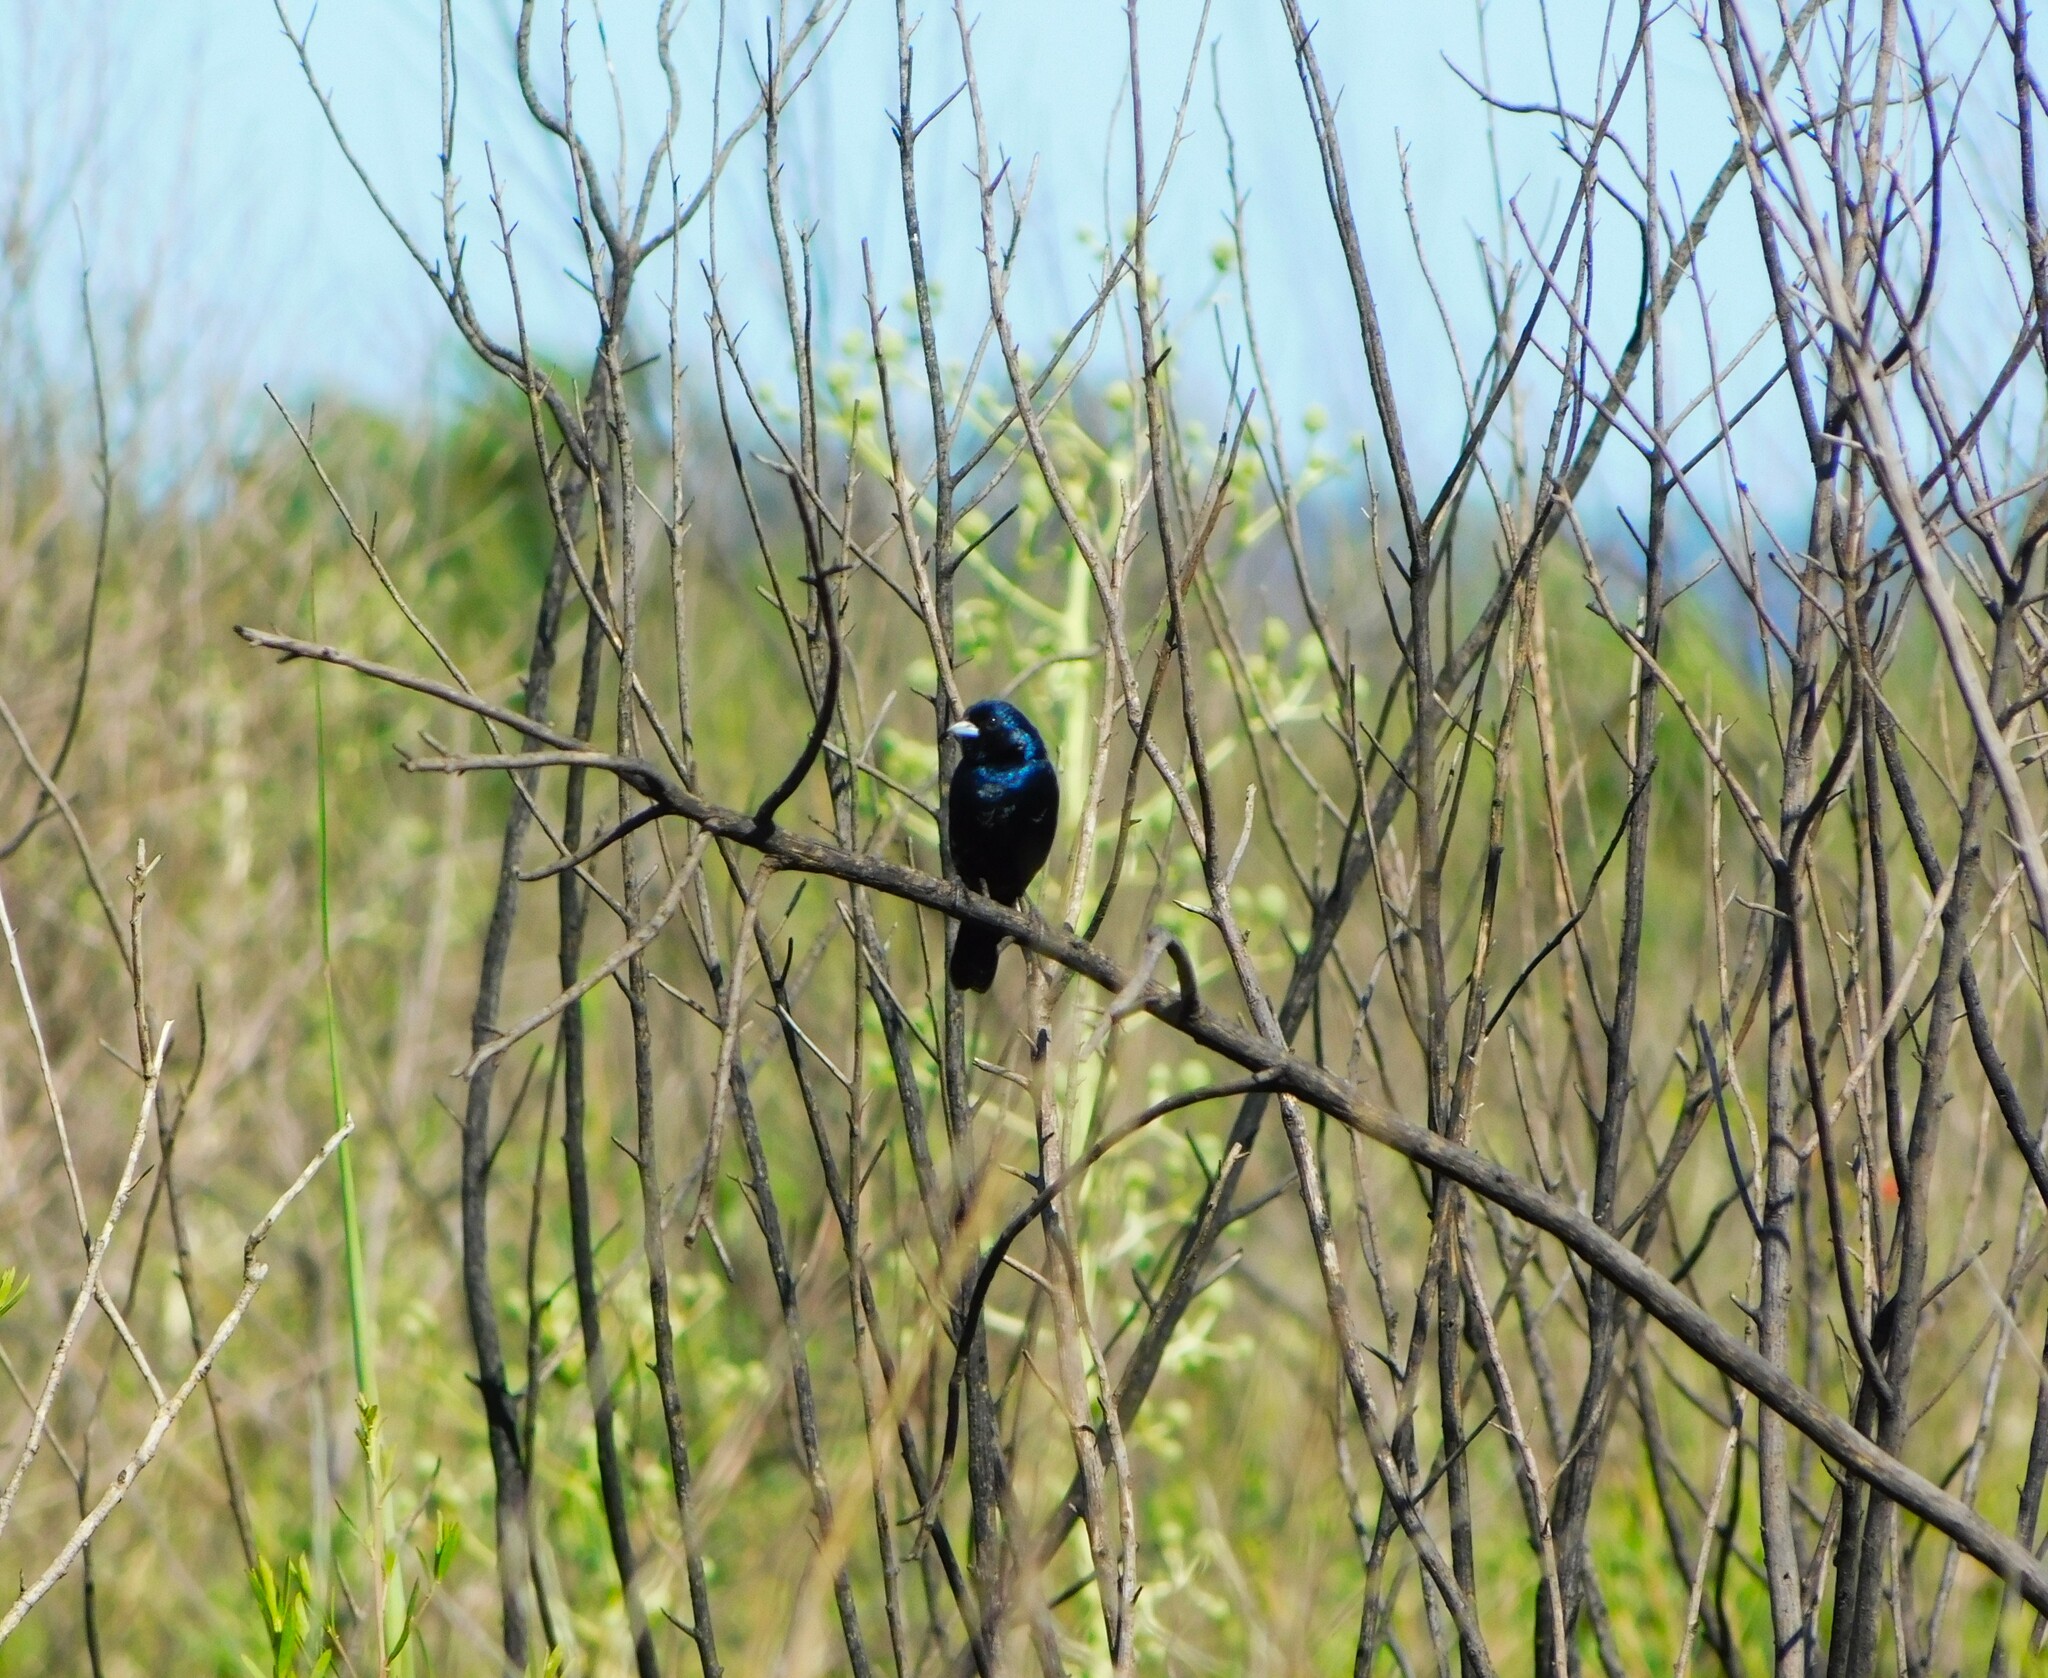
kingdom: Animalia
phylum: Chordata
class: Aves
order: Passeriformes
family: Thraupidae
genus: Volatinia
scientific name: Volatinia jacarina
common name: Blue-black grassquit
